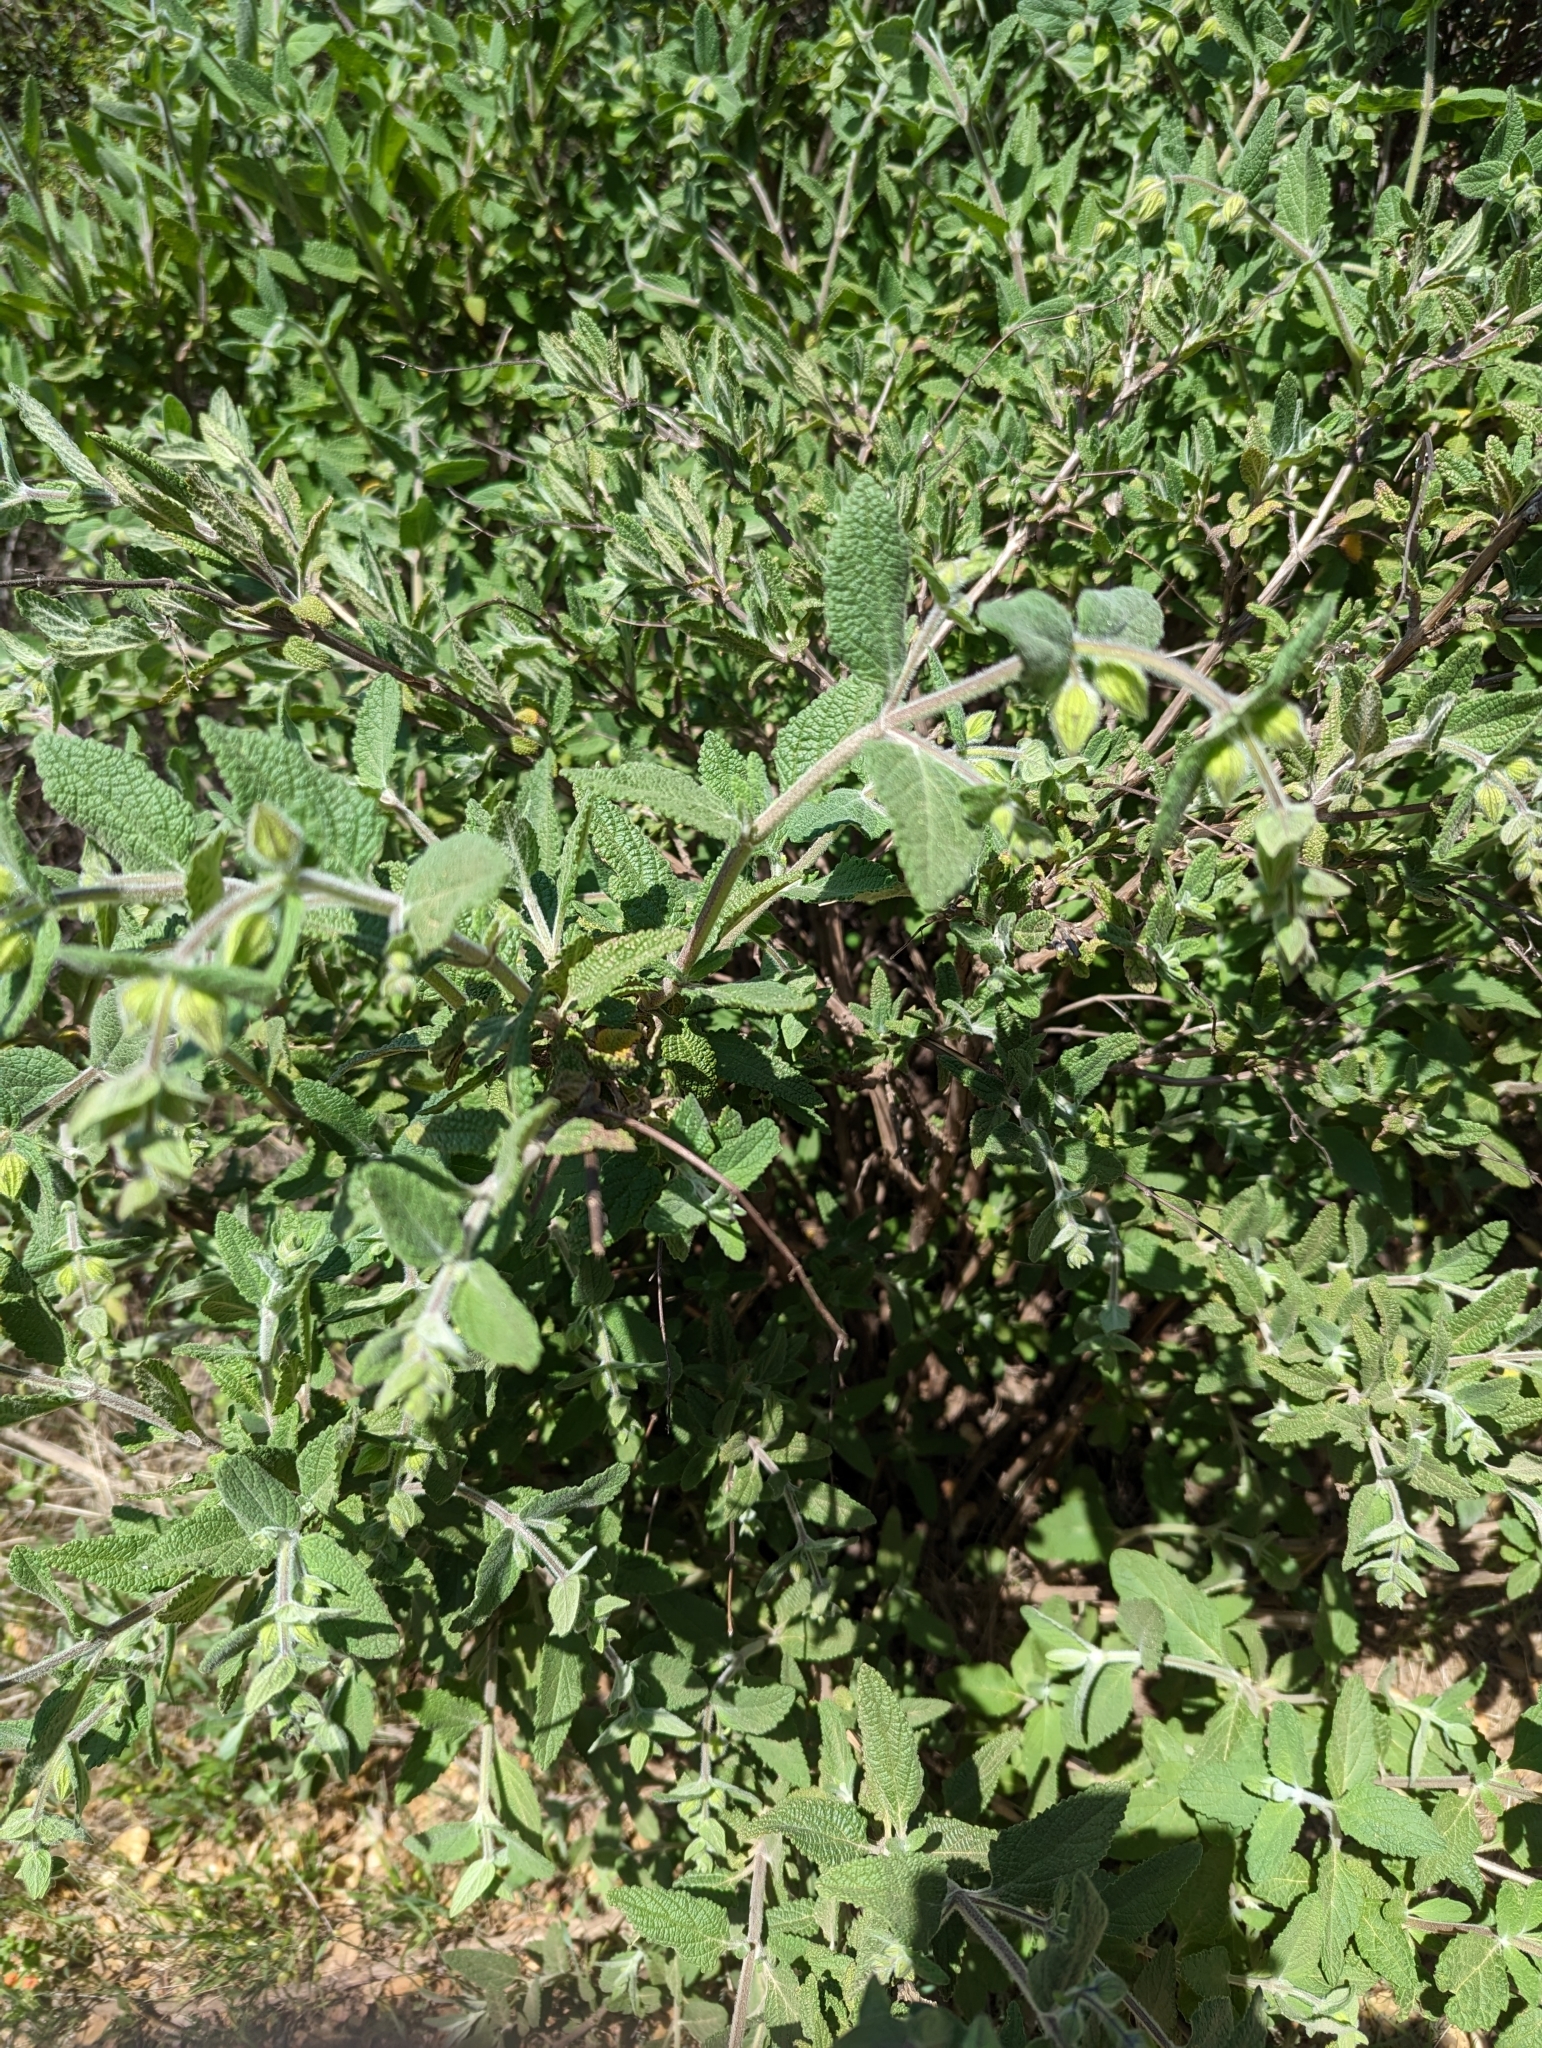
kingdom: Plantae
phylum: Tracheophyta
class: Magnoliopsida
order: Lamiales
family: Lamiaceae
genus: Lepechinia
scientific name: Lepechinia calycina
